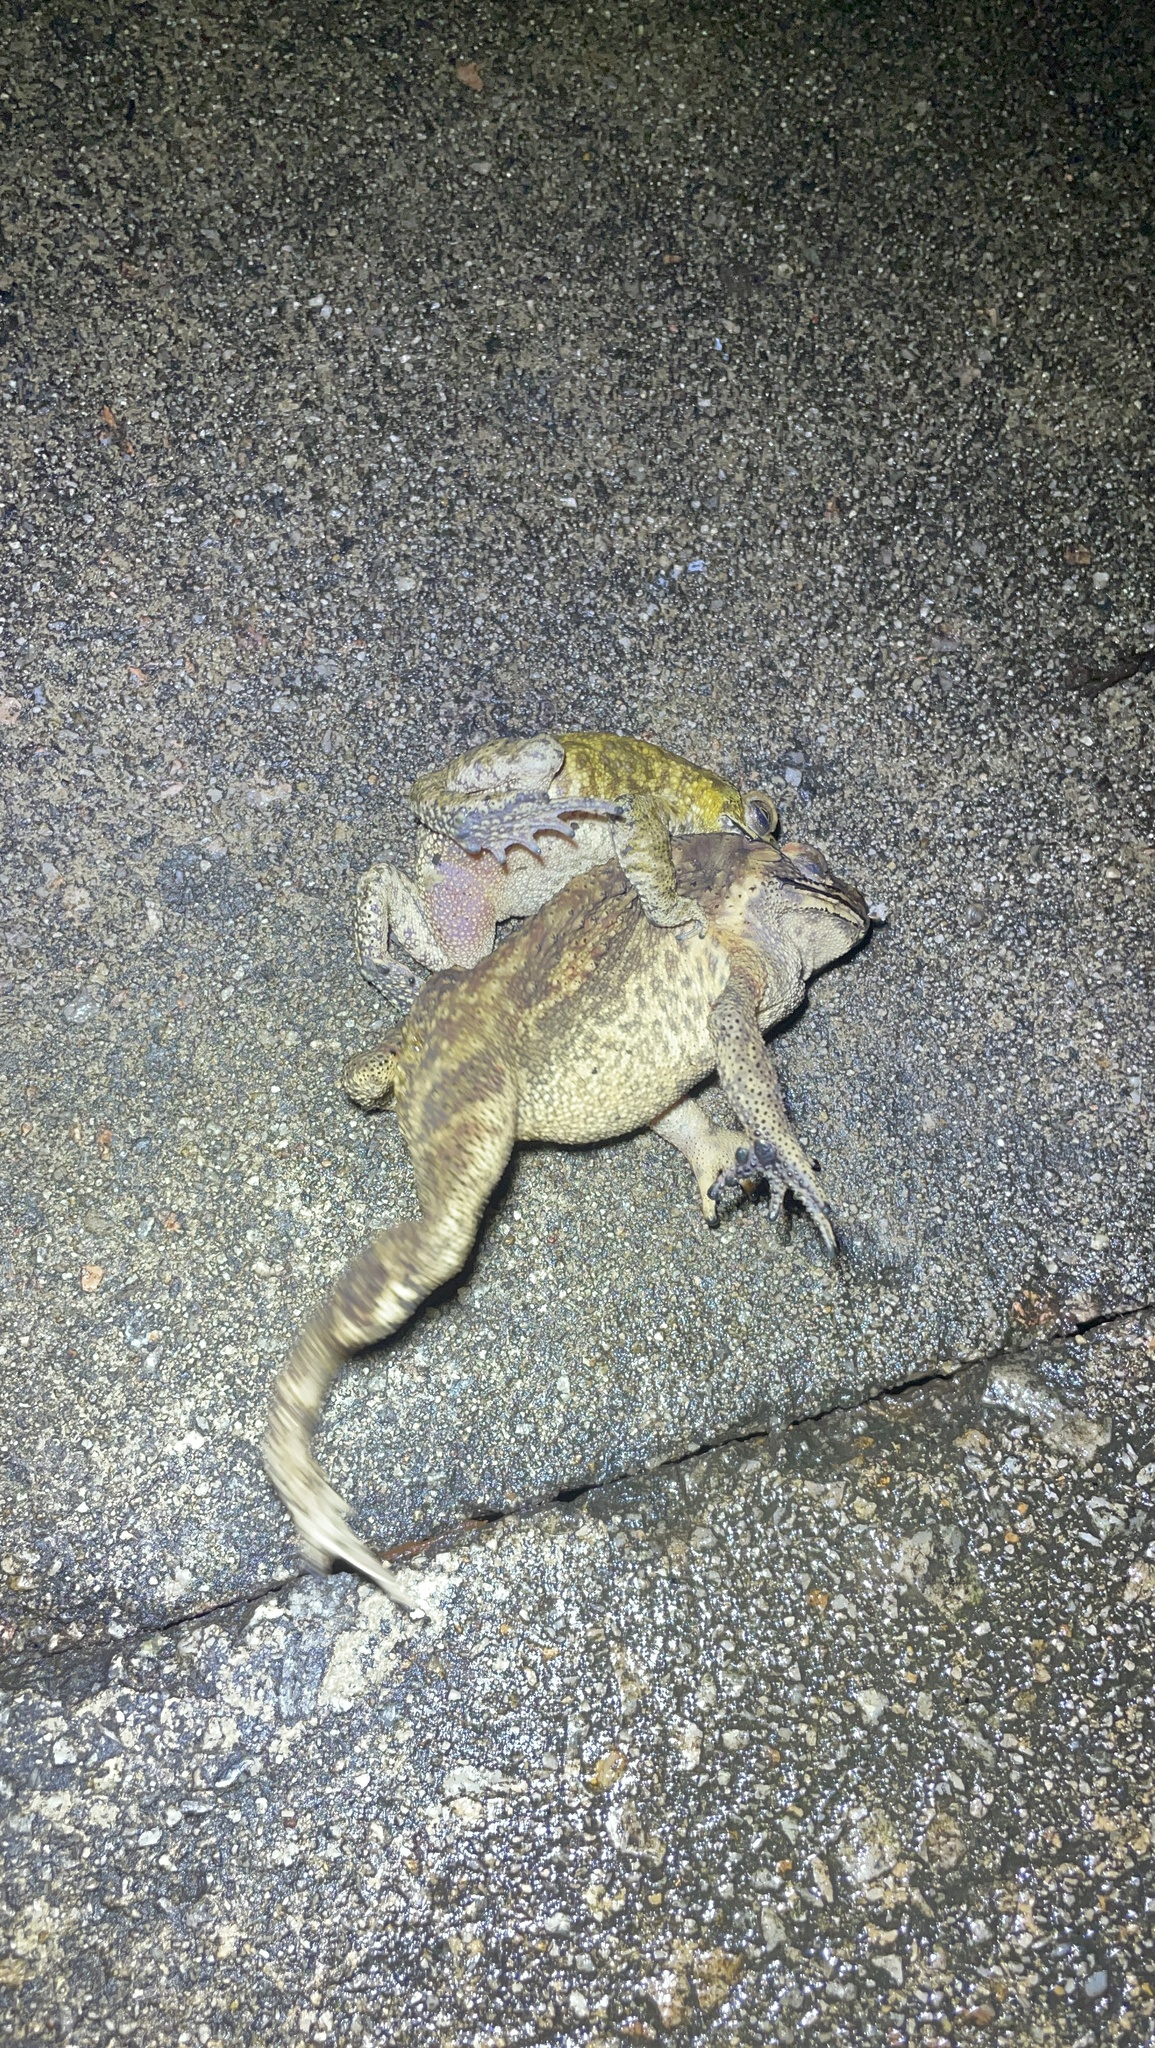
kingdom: Animalia
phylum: Chordata
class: Amphibia
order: Anura
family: Bufonidae
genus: Duttaphrynus
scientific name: Duttaphrynus melanostictus
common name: Common sunda toad
